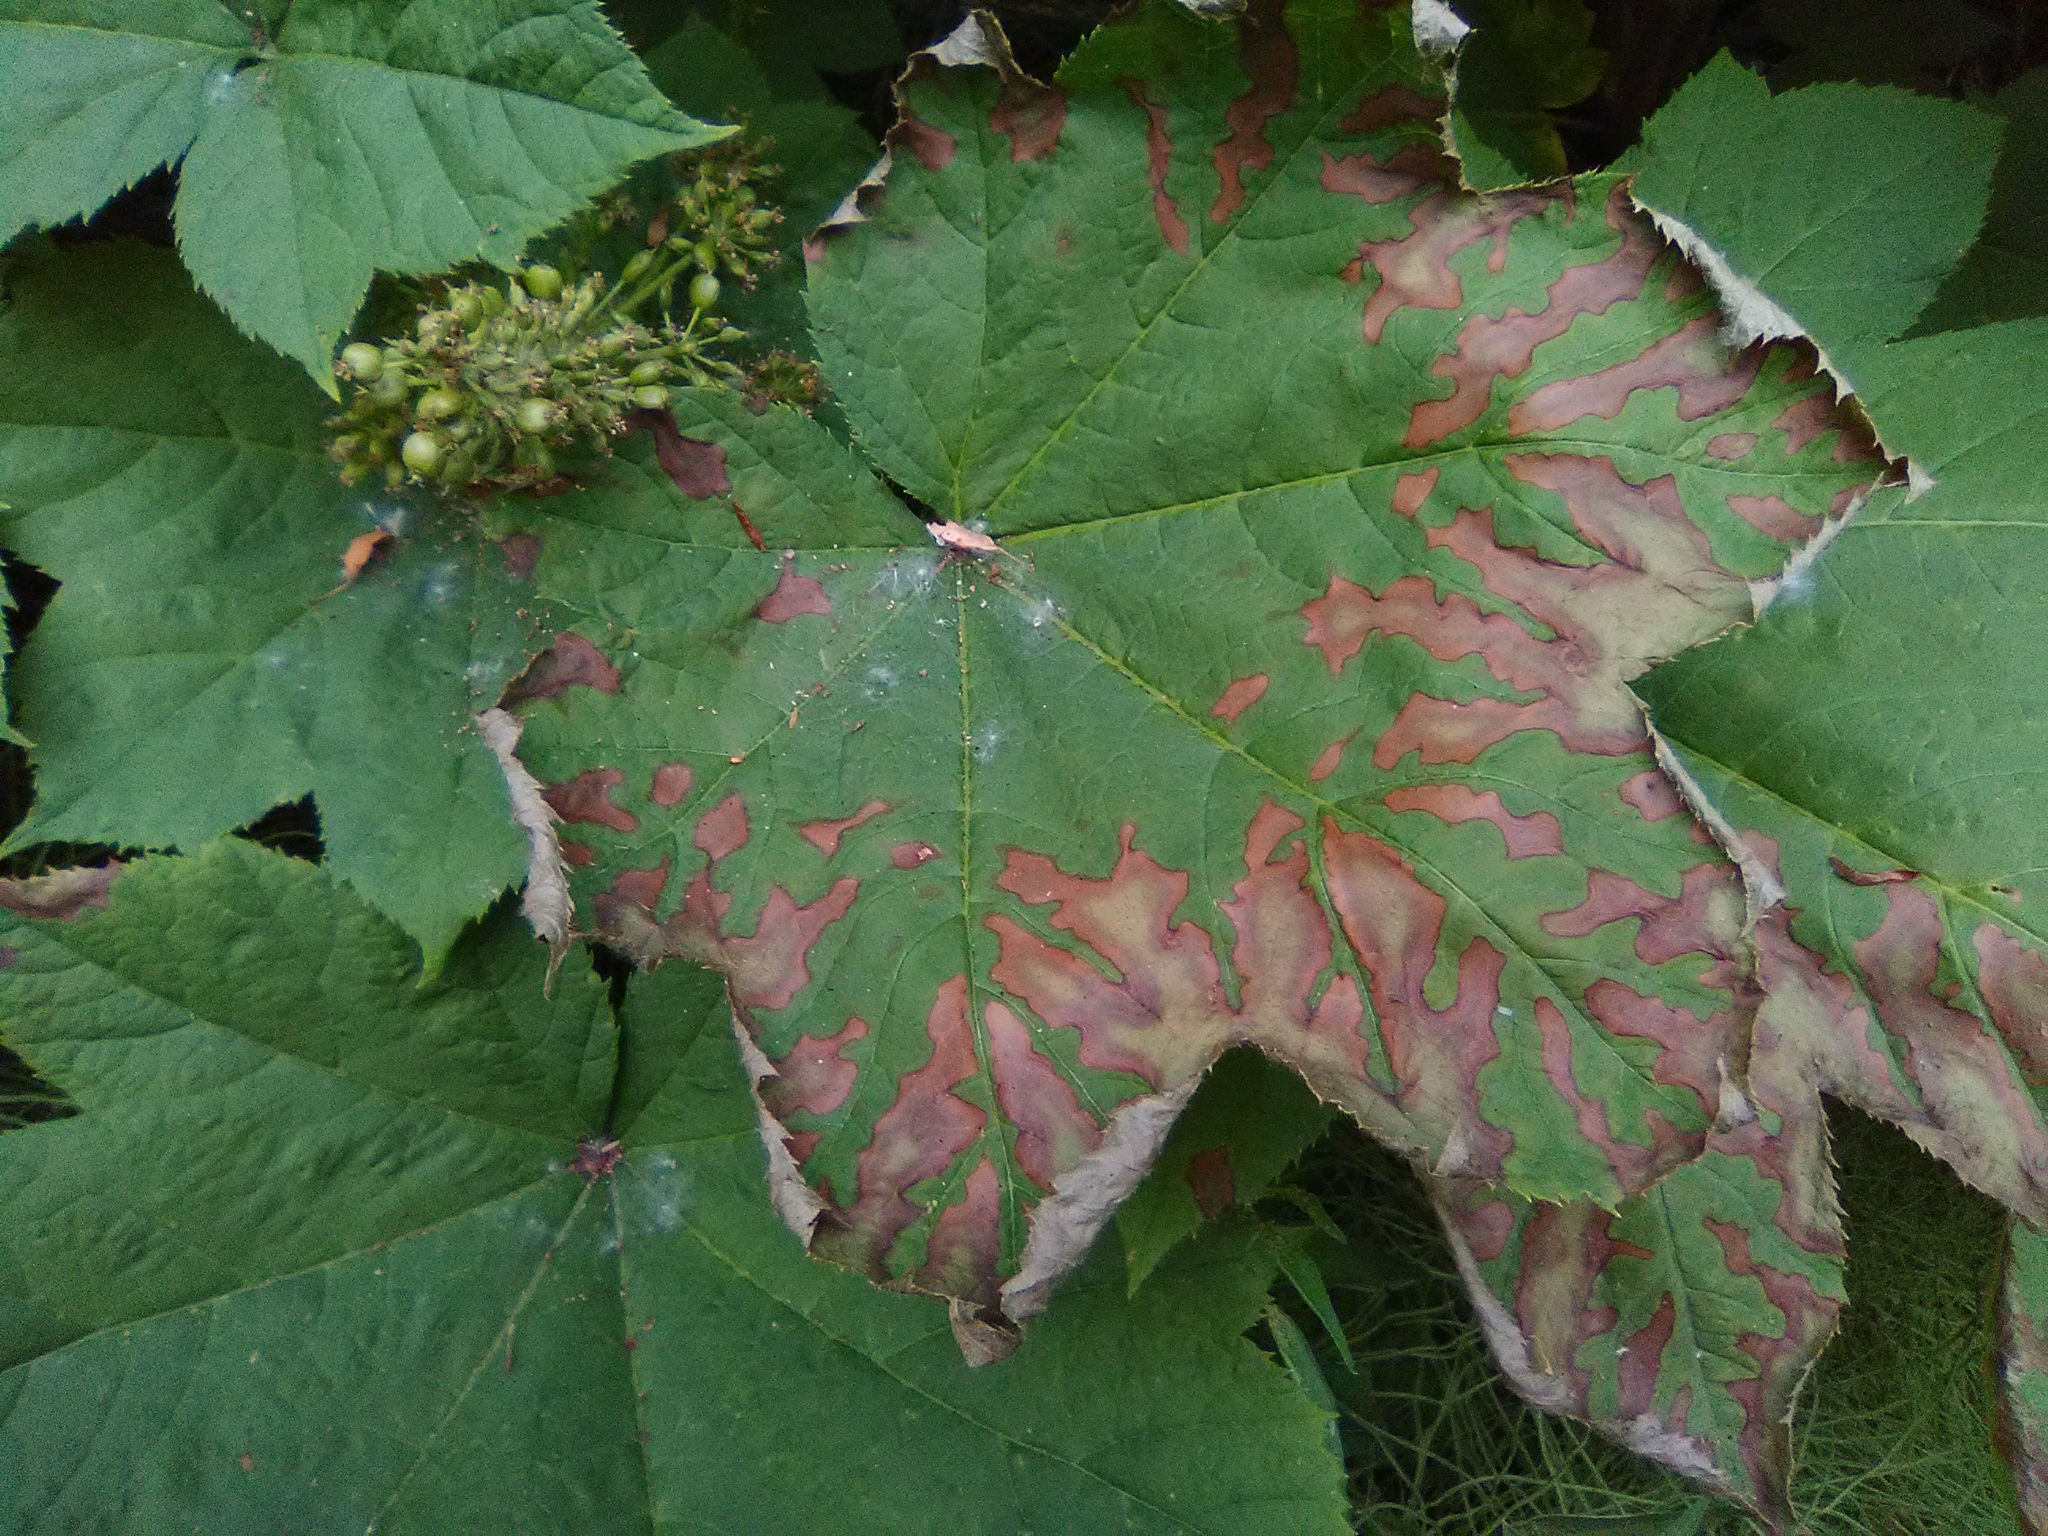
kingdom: Plantae
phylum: Tracheophyta
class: Magnoliopsida
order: Apiales
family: Araliaceae
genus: Oplopanax
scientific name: Oplopanax horridus
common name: Devil's walking-stick
